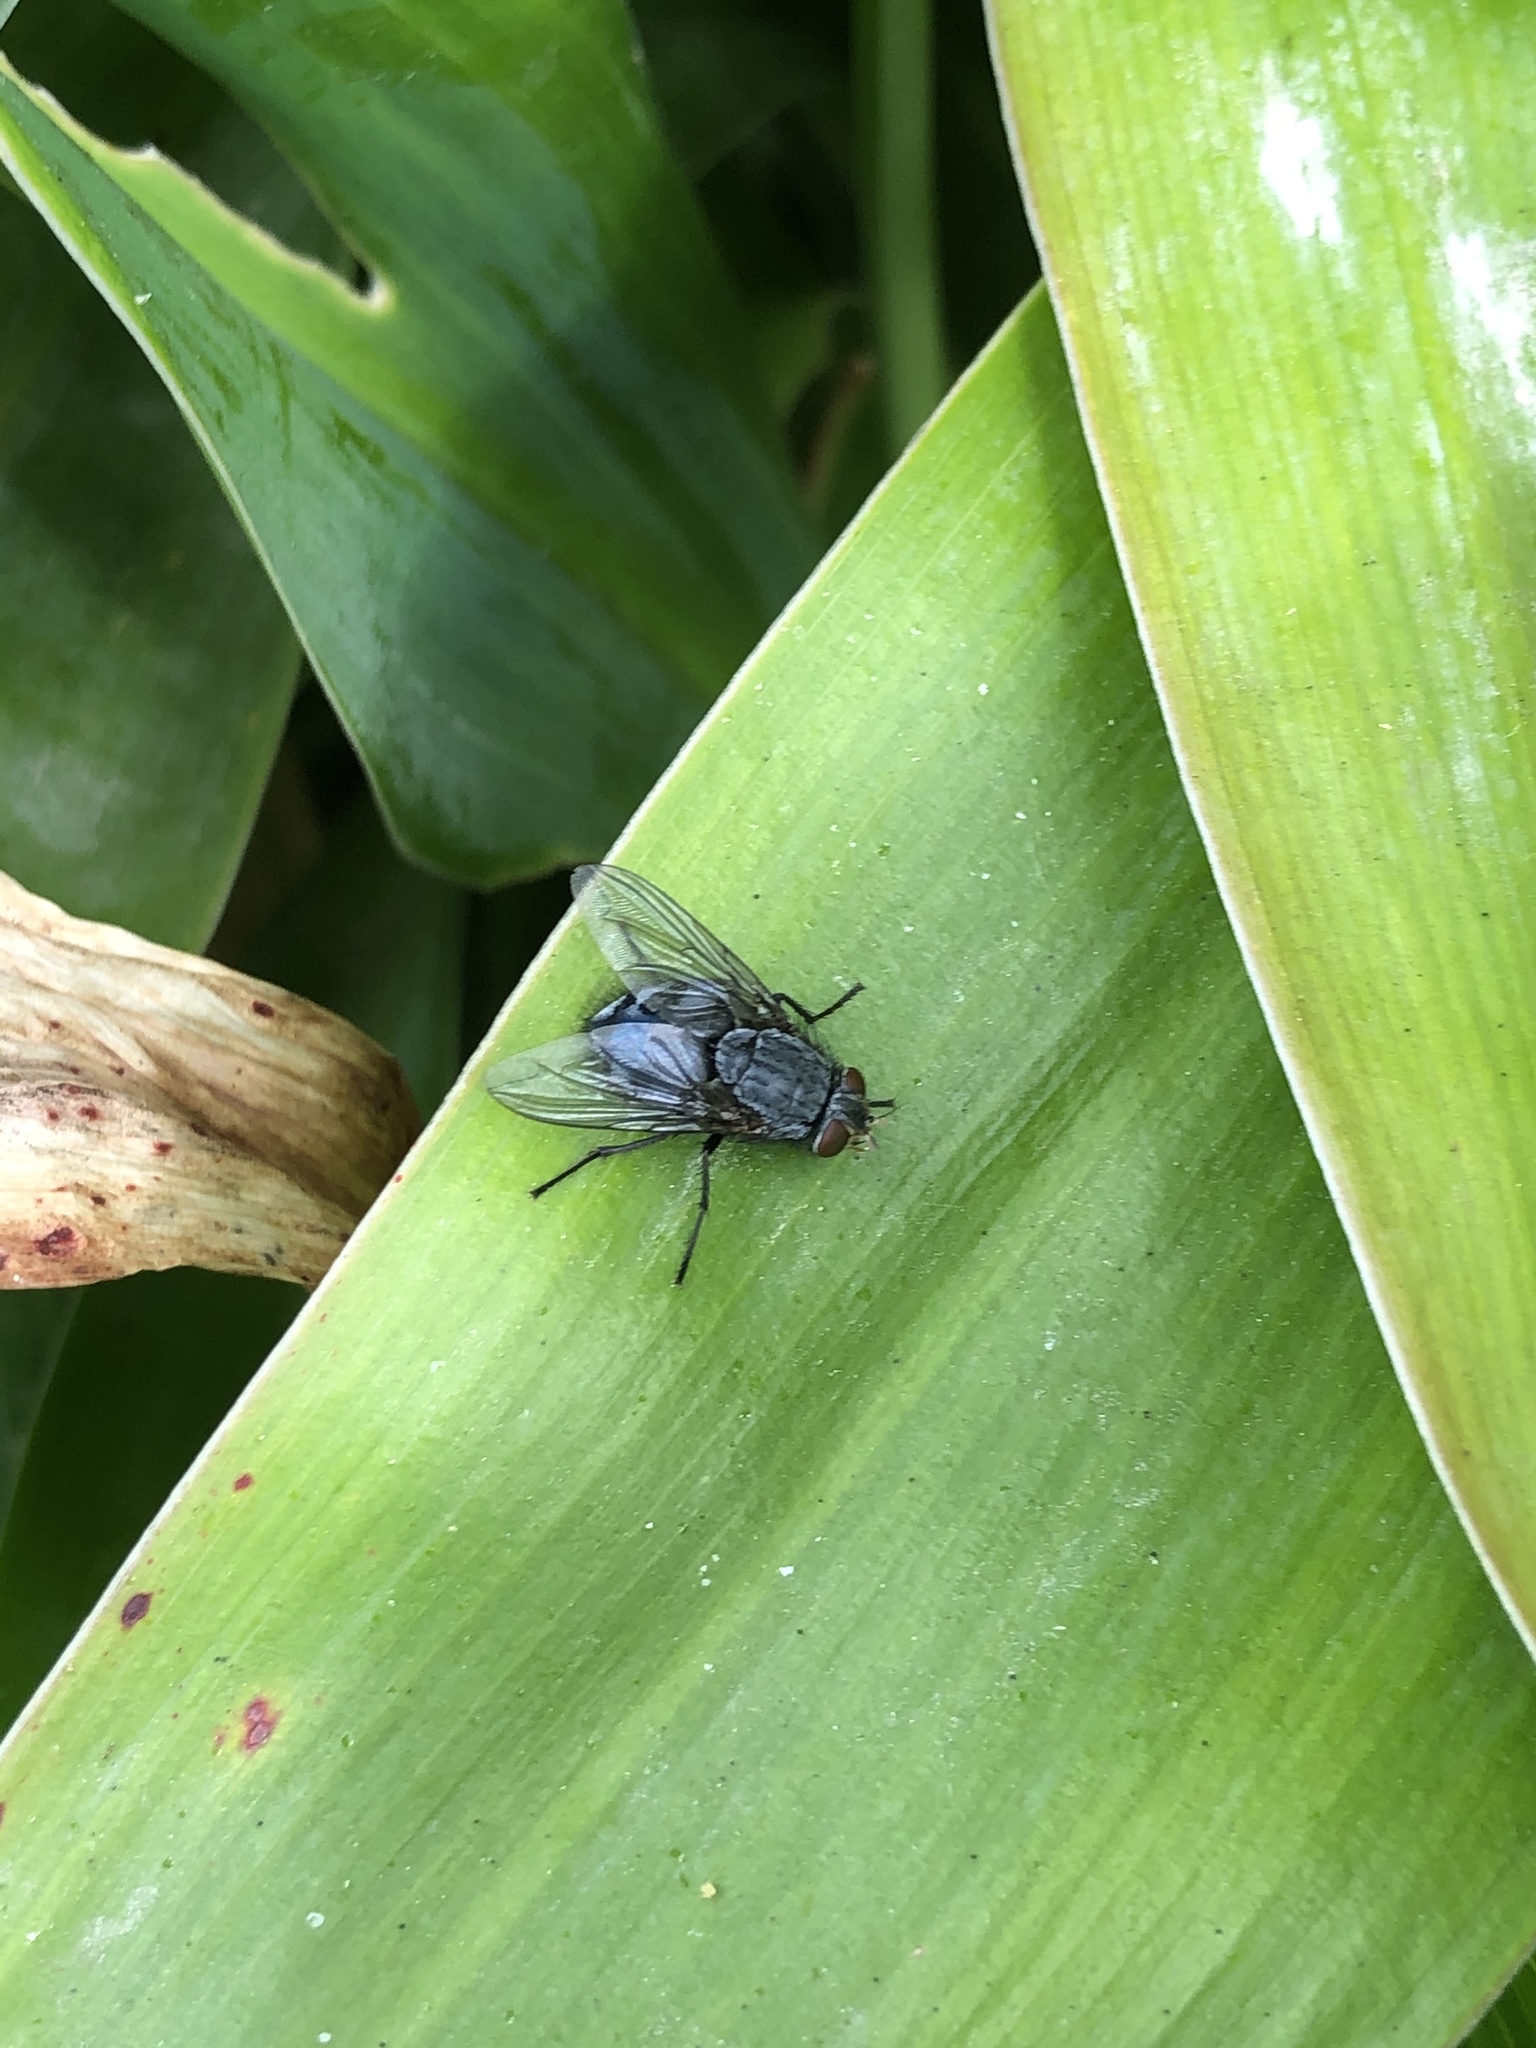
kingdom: Animalia
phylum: Arthropoda
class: Insecta
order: Diptera
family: Calliphoridae
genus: Calliphora
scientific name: Calliphora vicina
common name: Common blow flie
